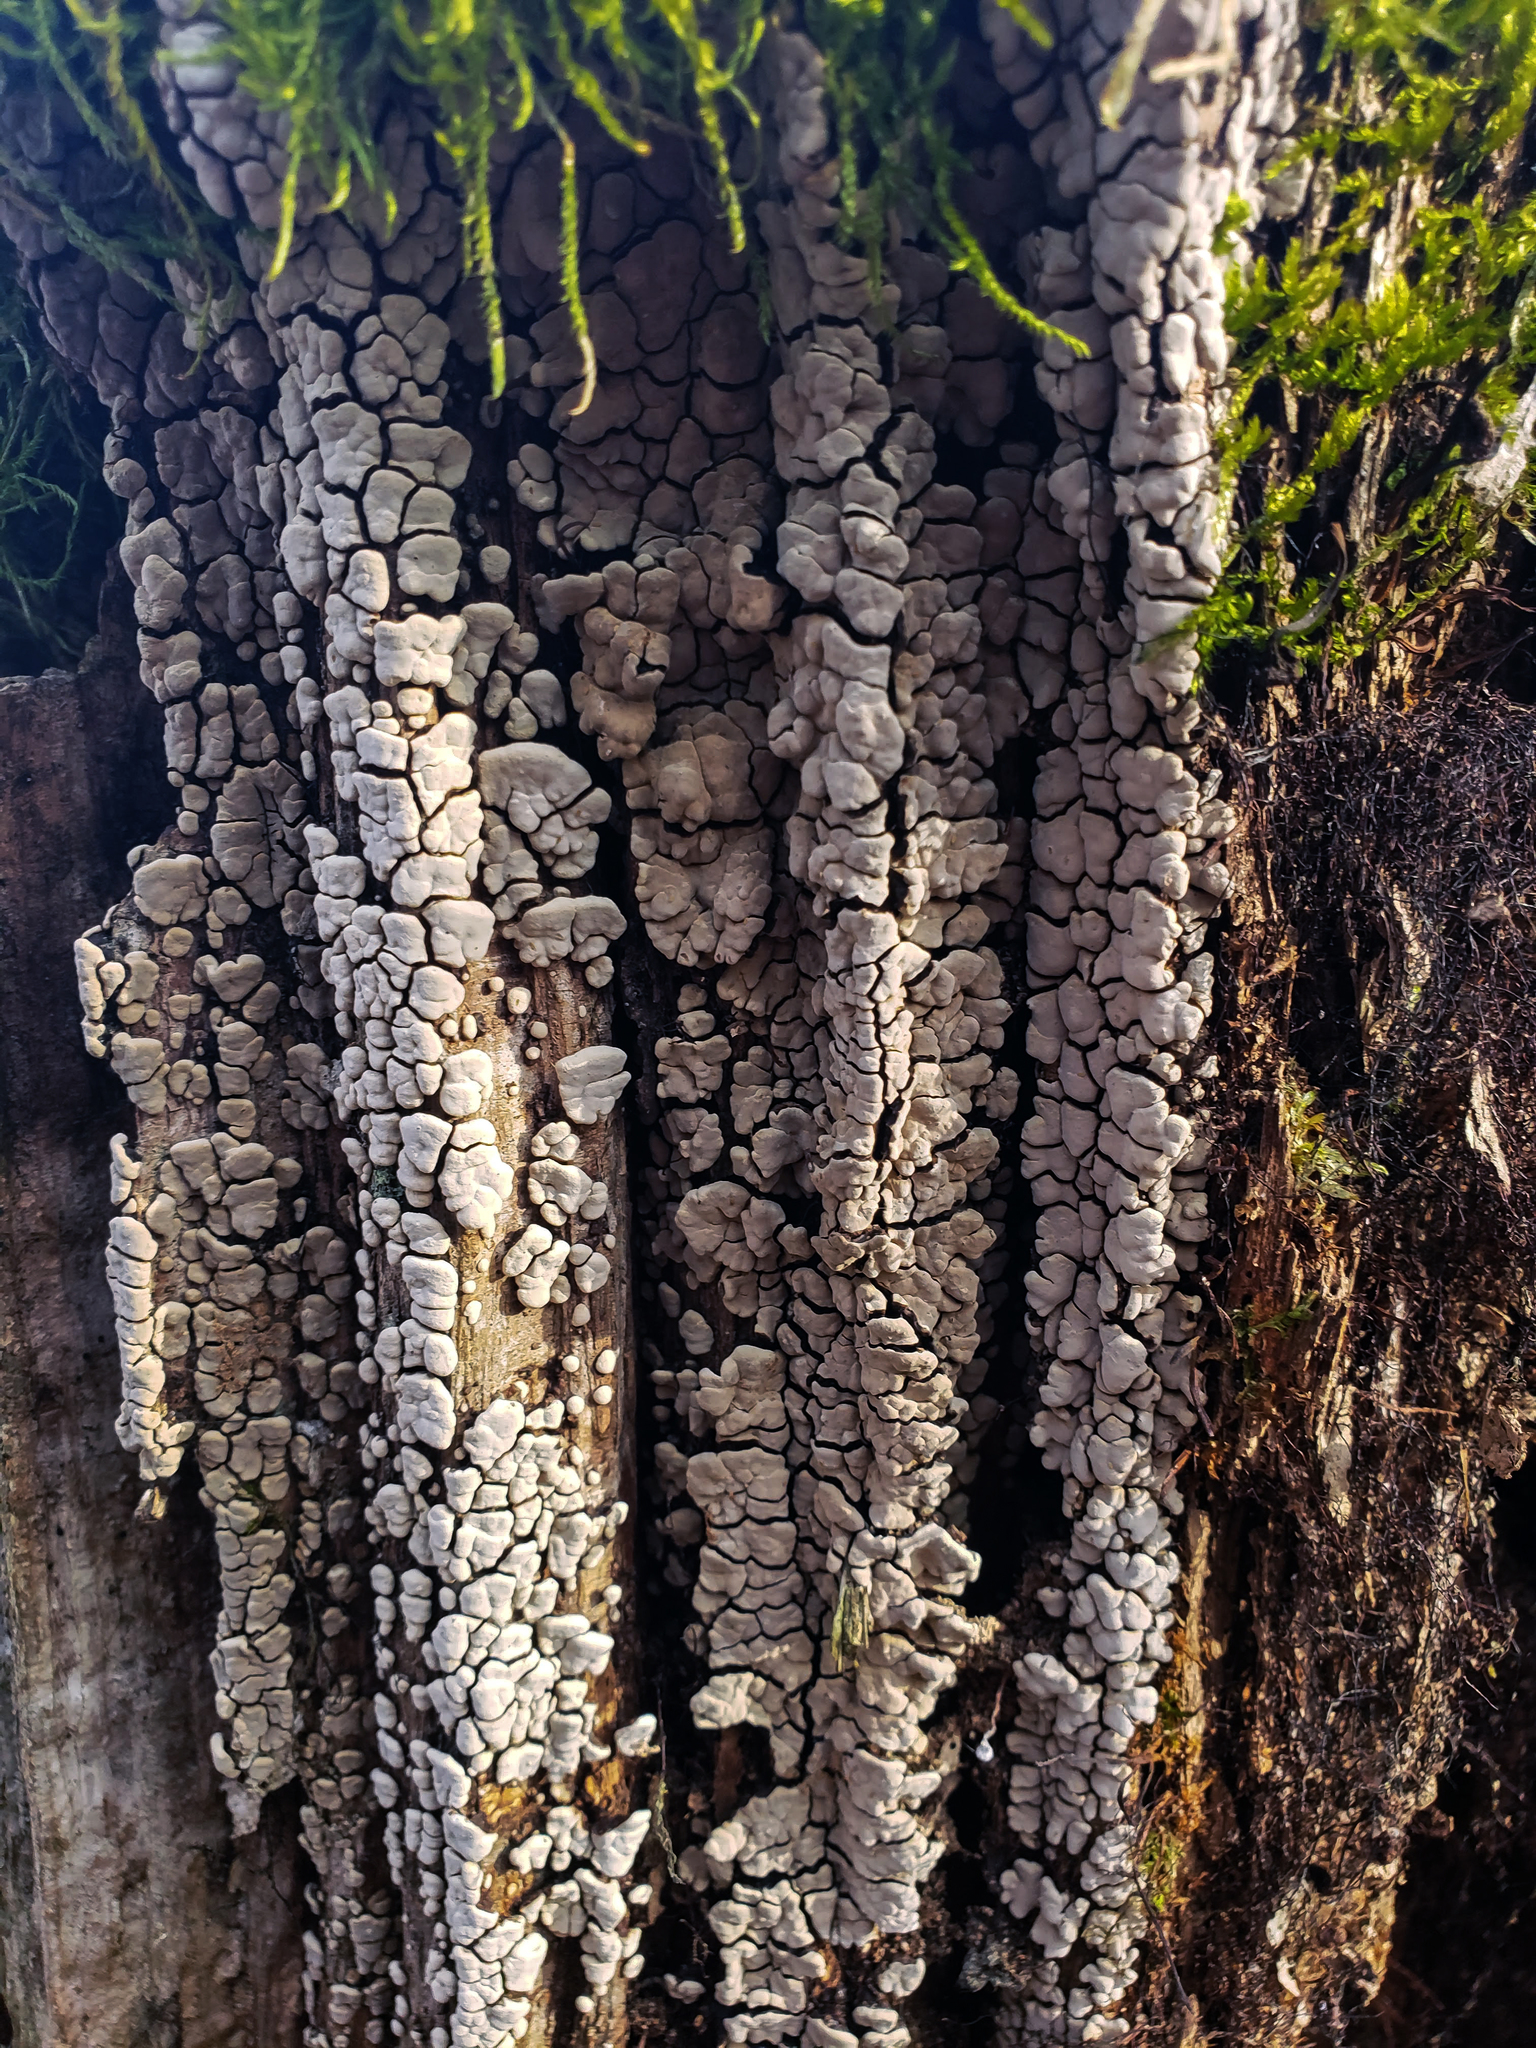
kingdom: Fungi
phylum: Basidiomycota
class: Agaricomycetes
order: Russulales
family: Stereaceae
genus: Xylobolus
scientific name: Xylobolus frustulatus
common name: Ceramic parchment
